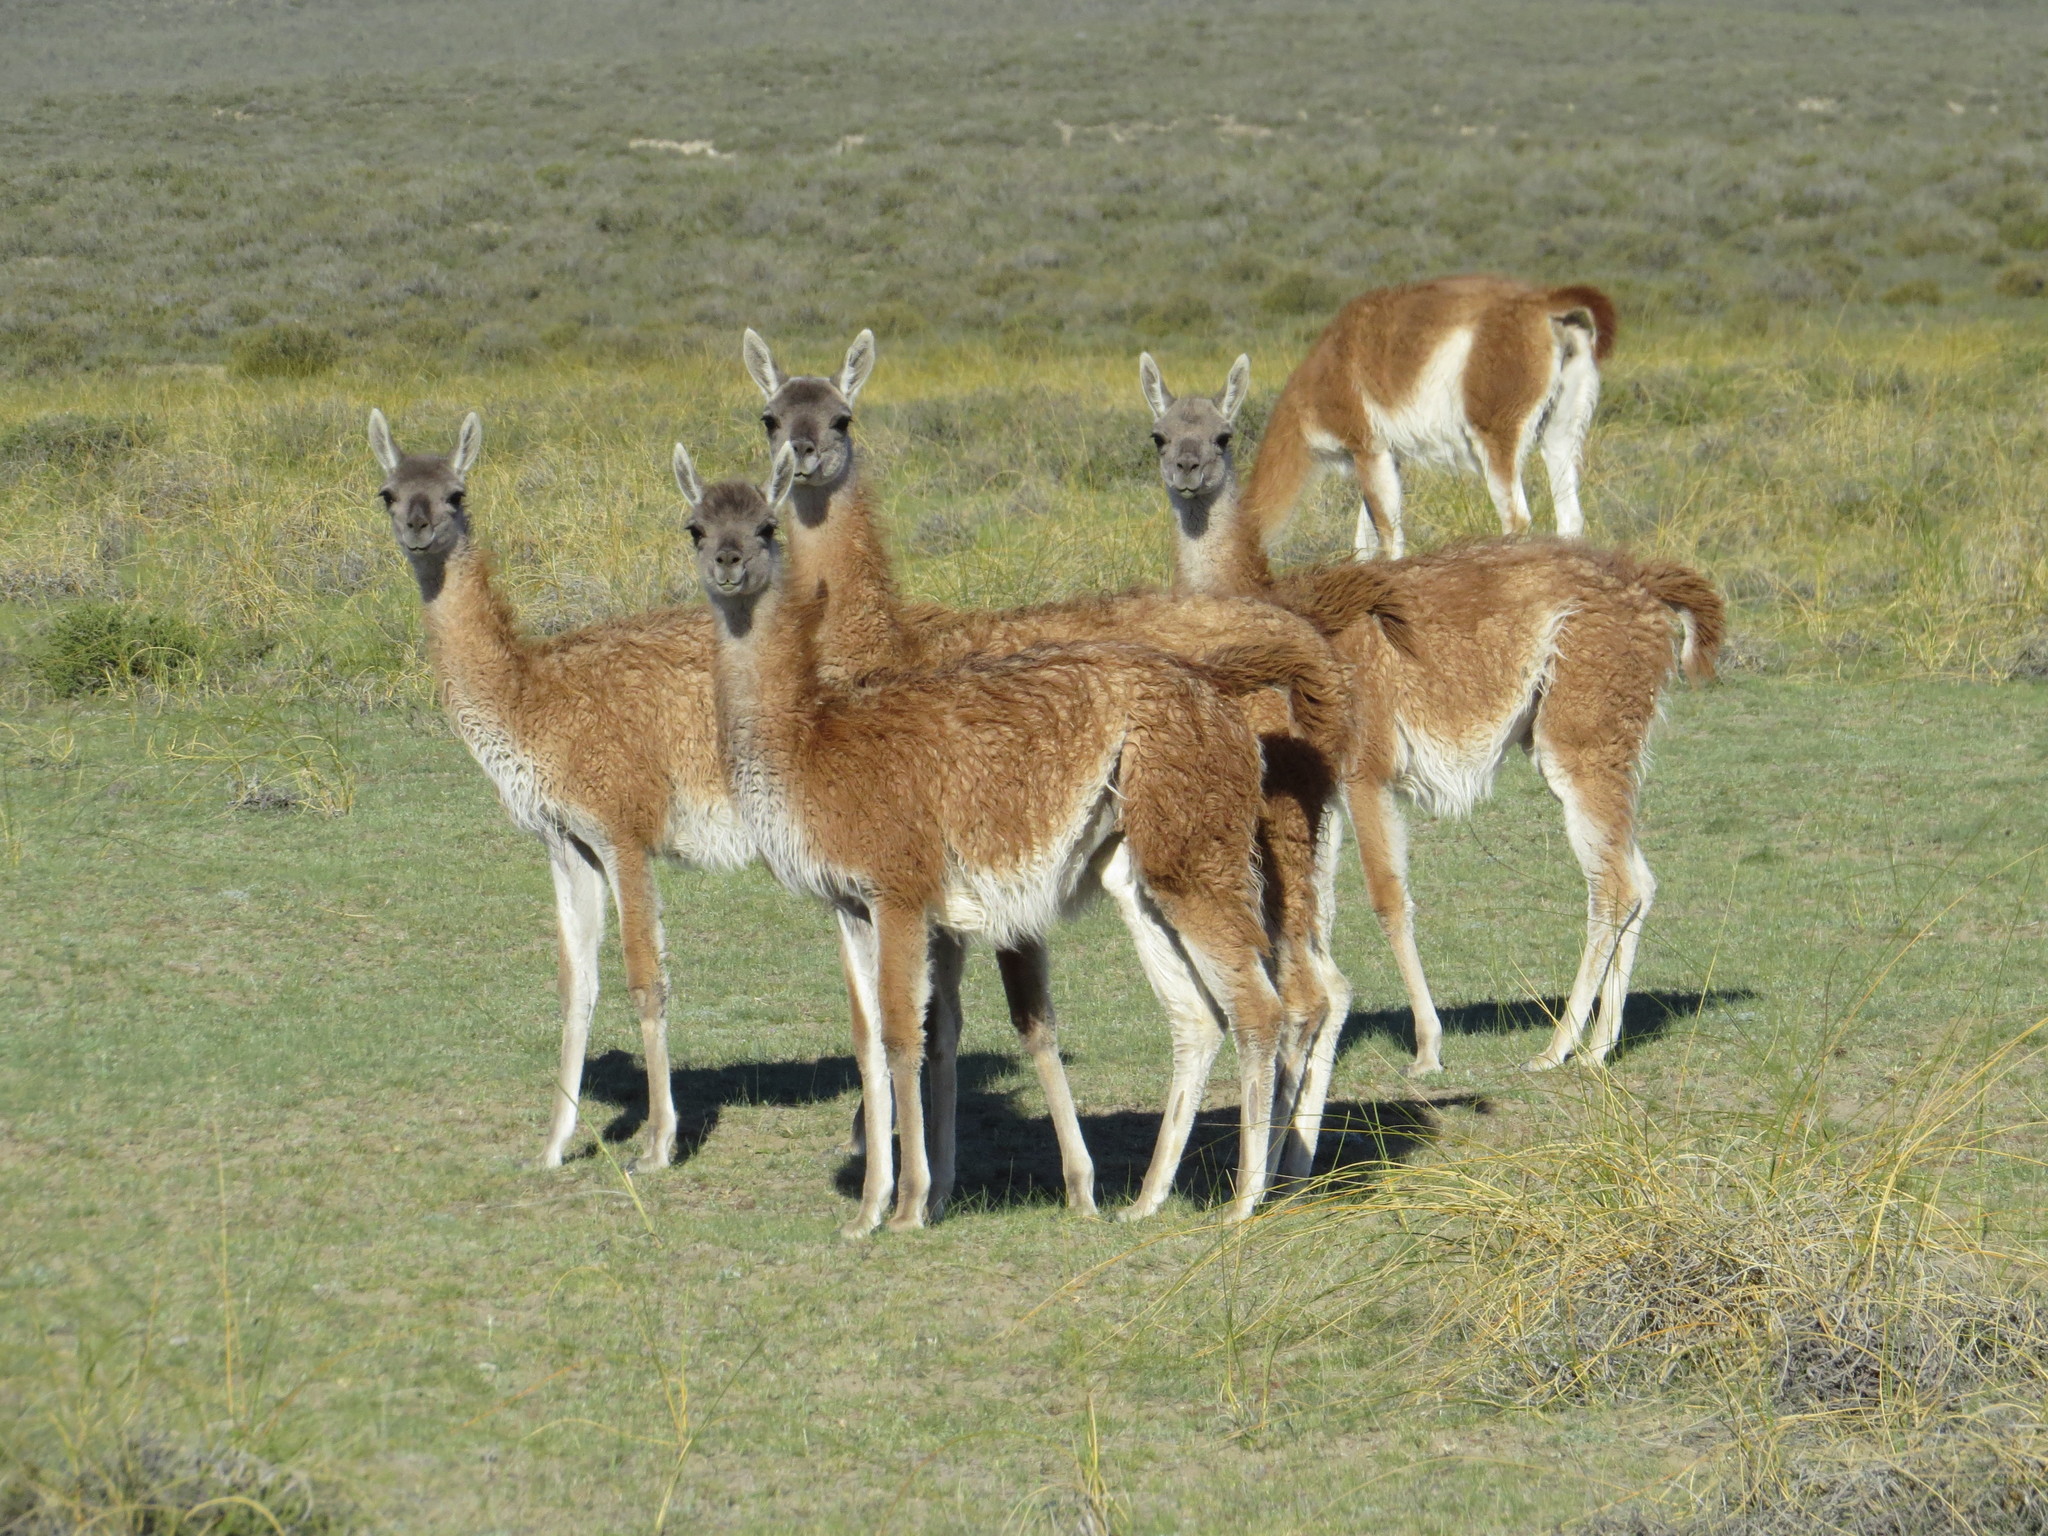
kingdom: Animalia
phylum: Chordata
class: Mammalia
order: Artiodactyla
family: Camelidae
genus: Lama
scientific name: Lama glama
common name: Llama
